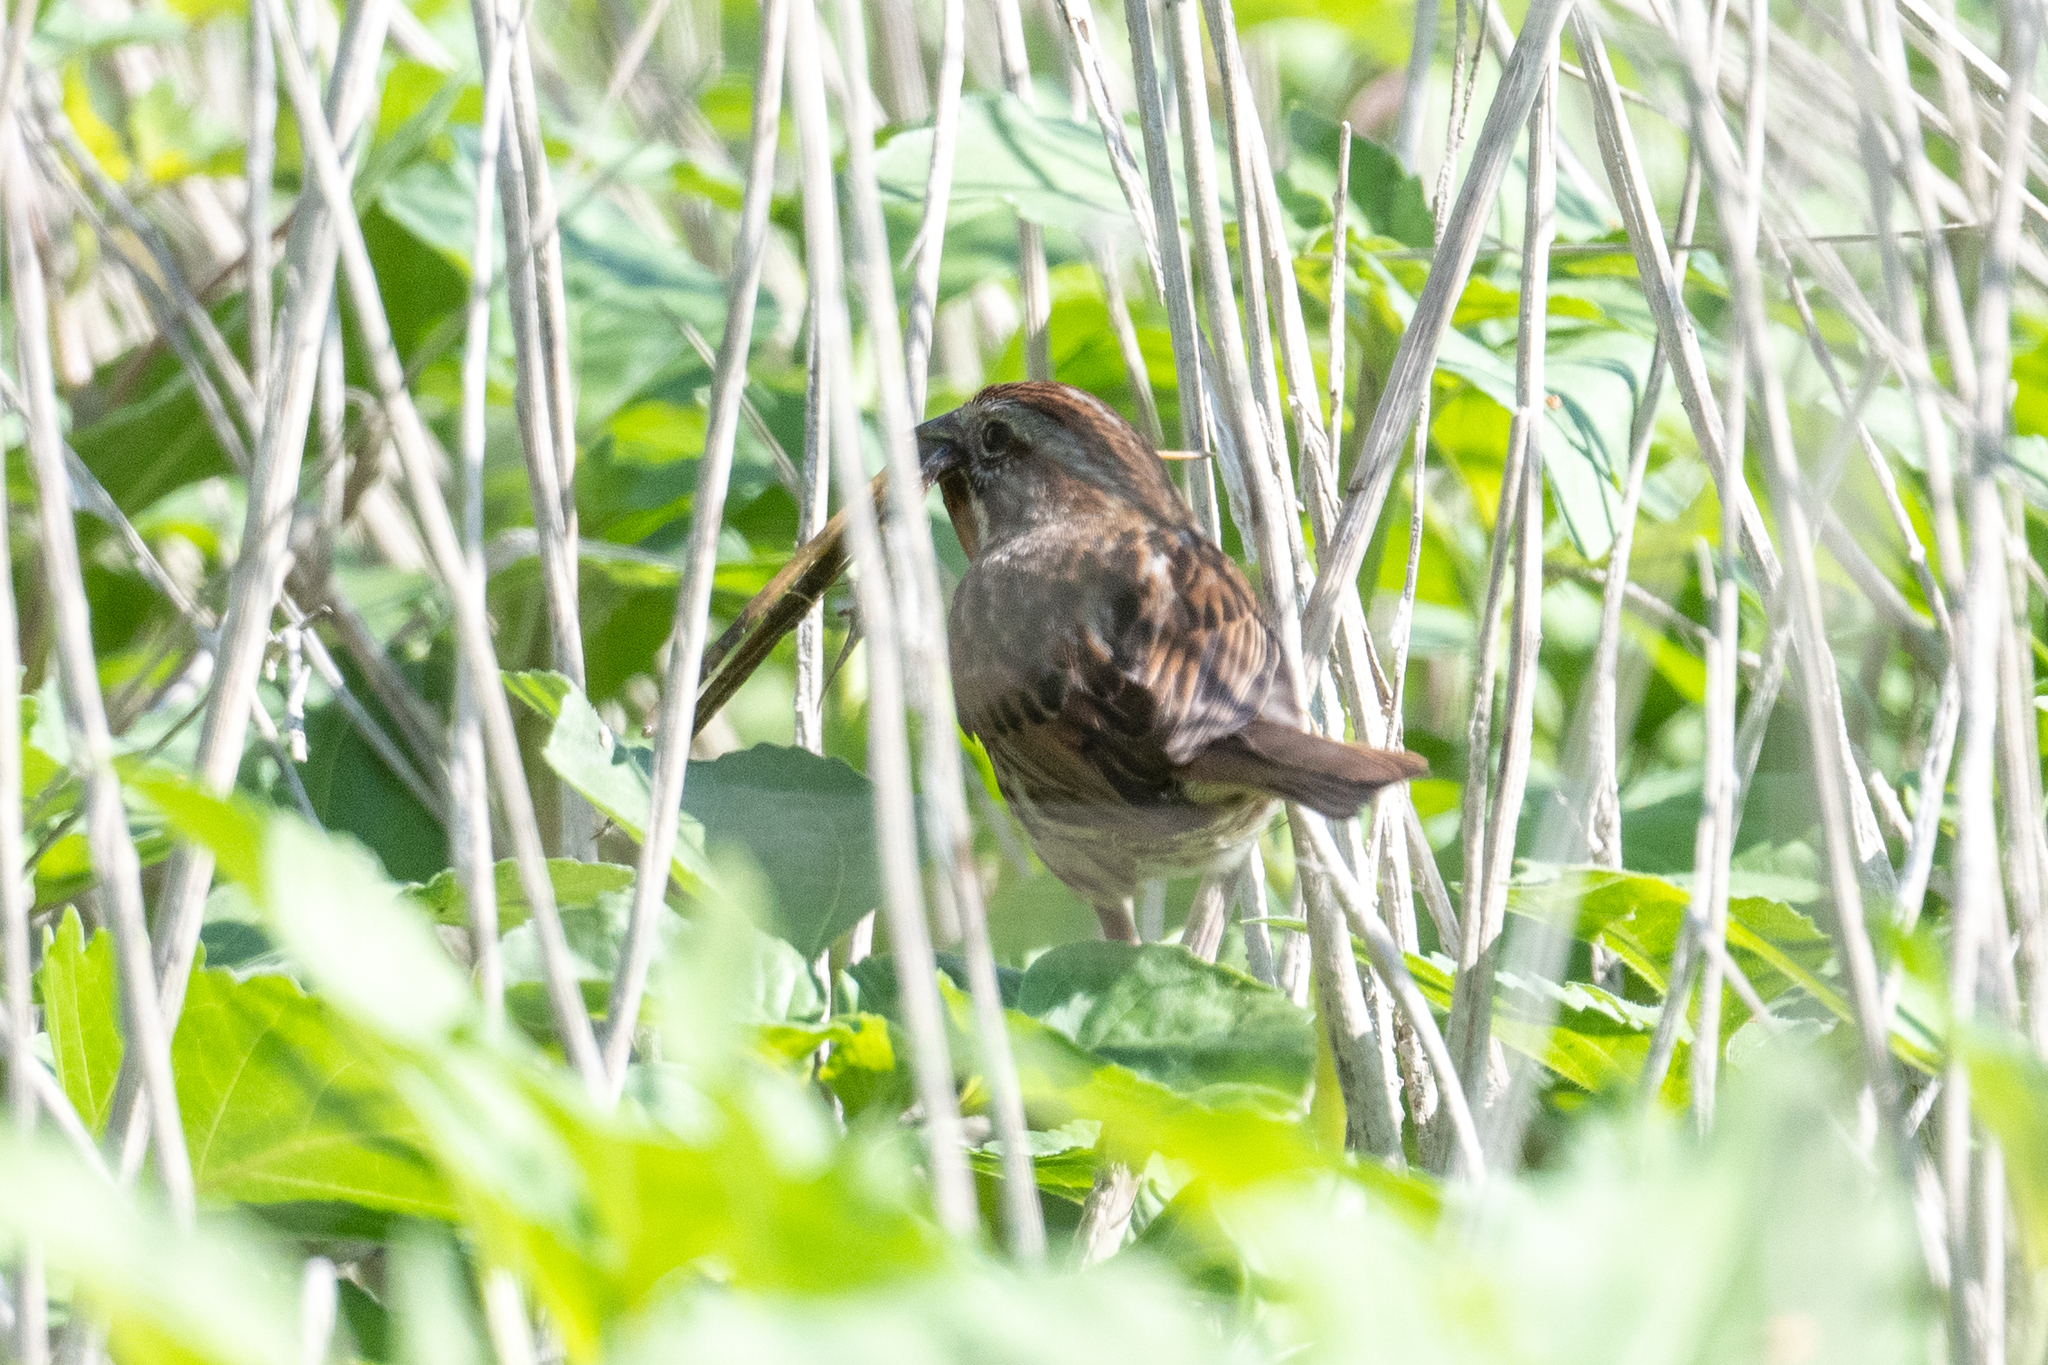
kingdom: Animalia
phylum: Chordata
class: Aves
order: Passeriformes
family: Passerellidae
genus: Melospiza
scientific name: Melospiza melodia
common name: Song sparrow
